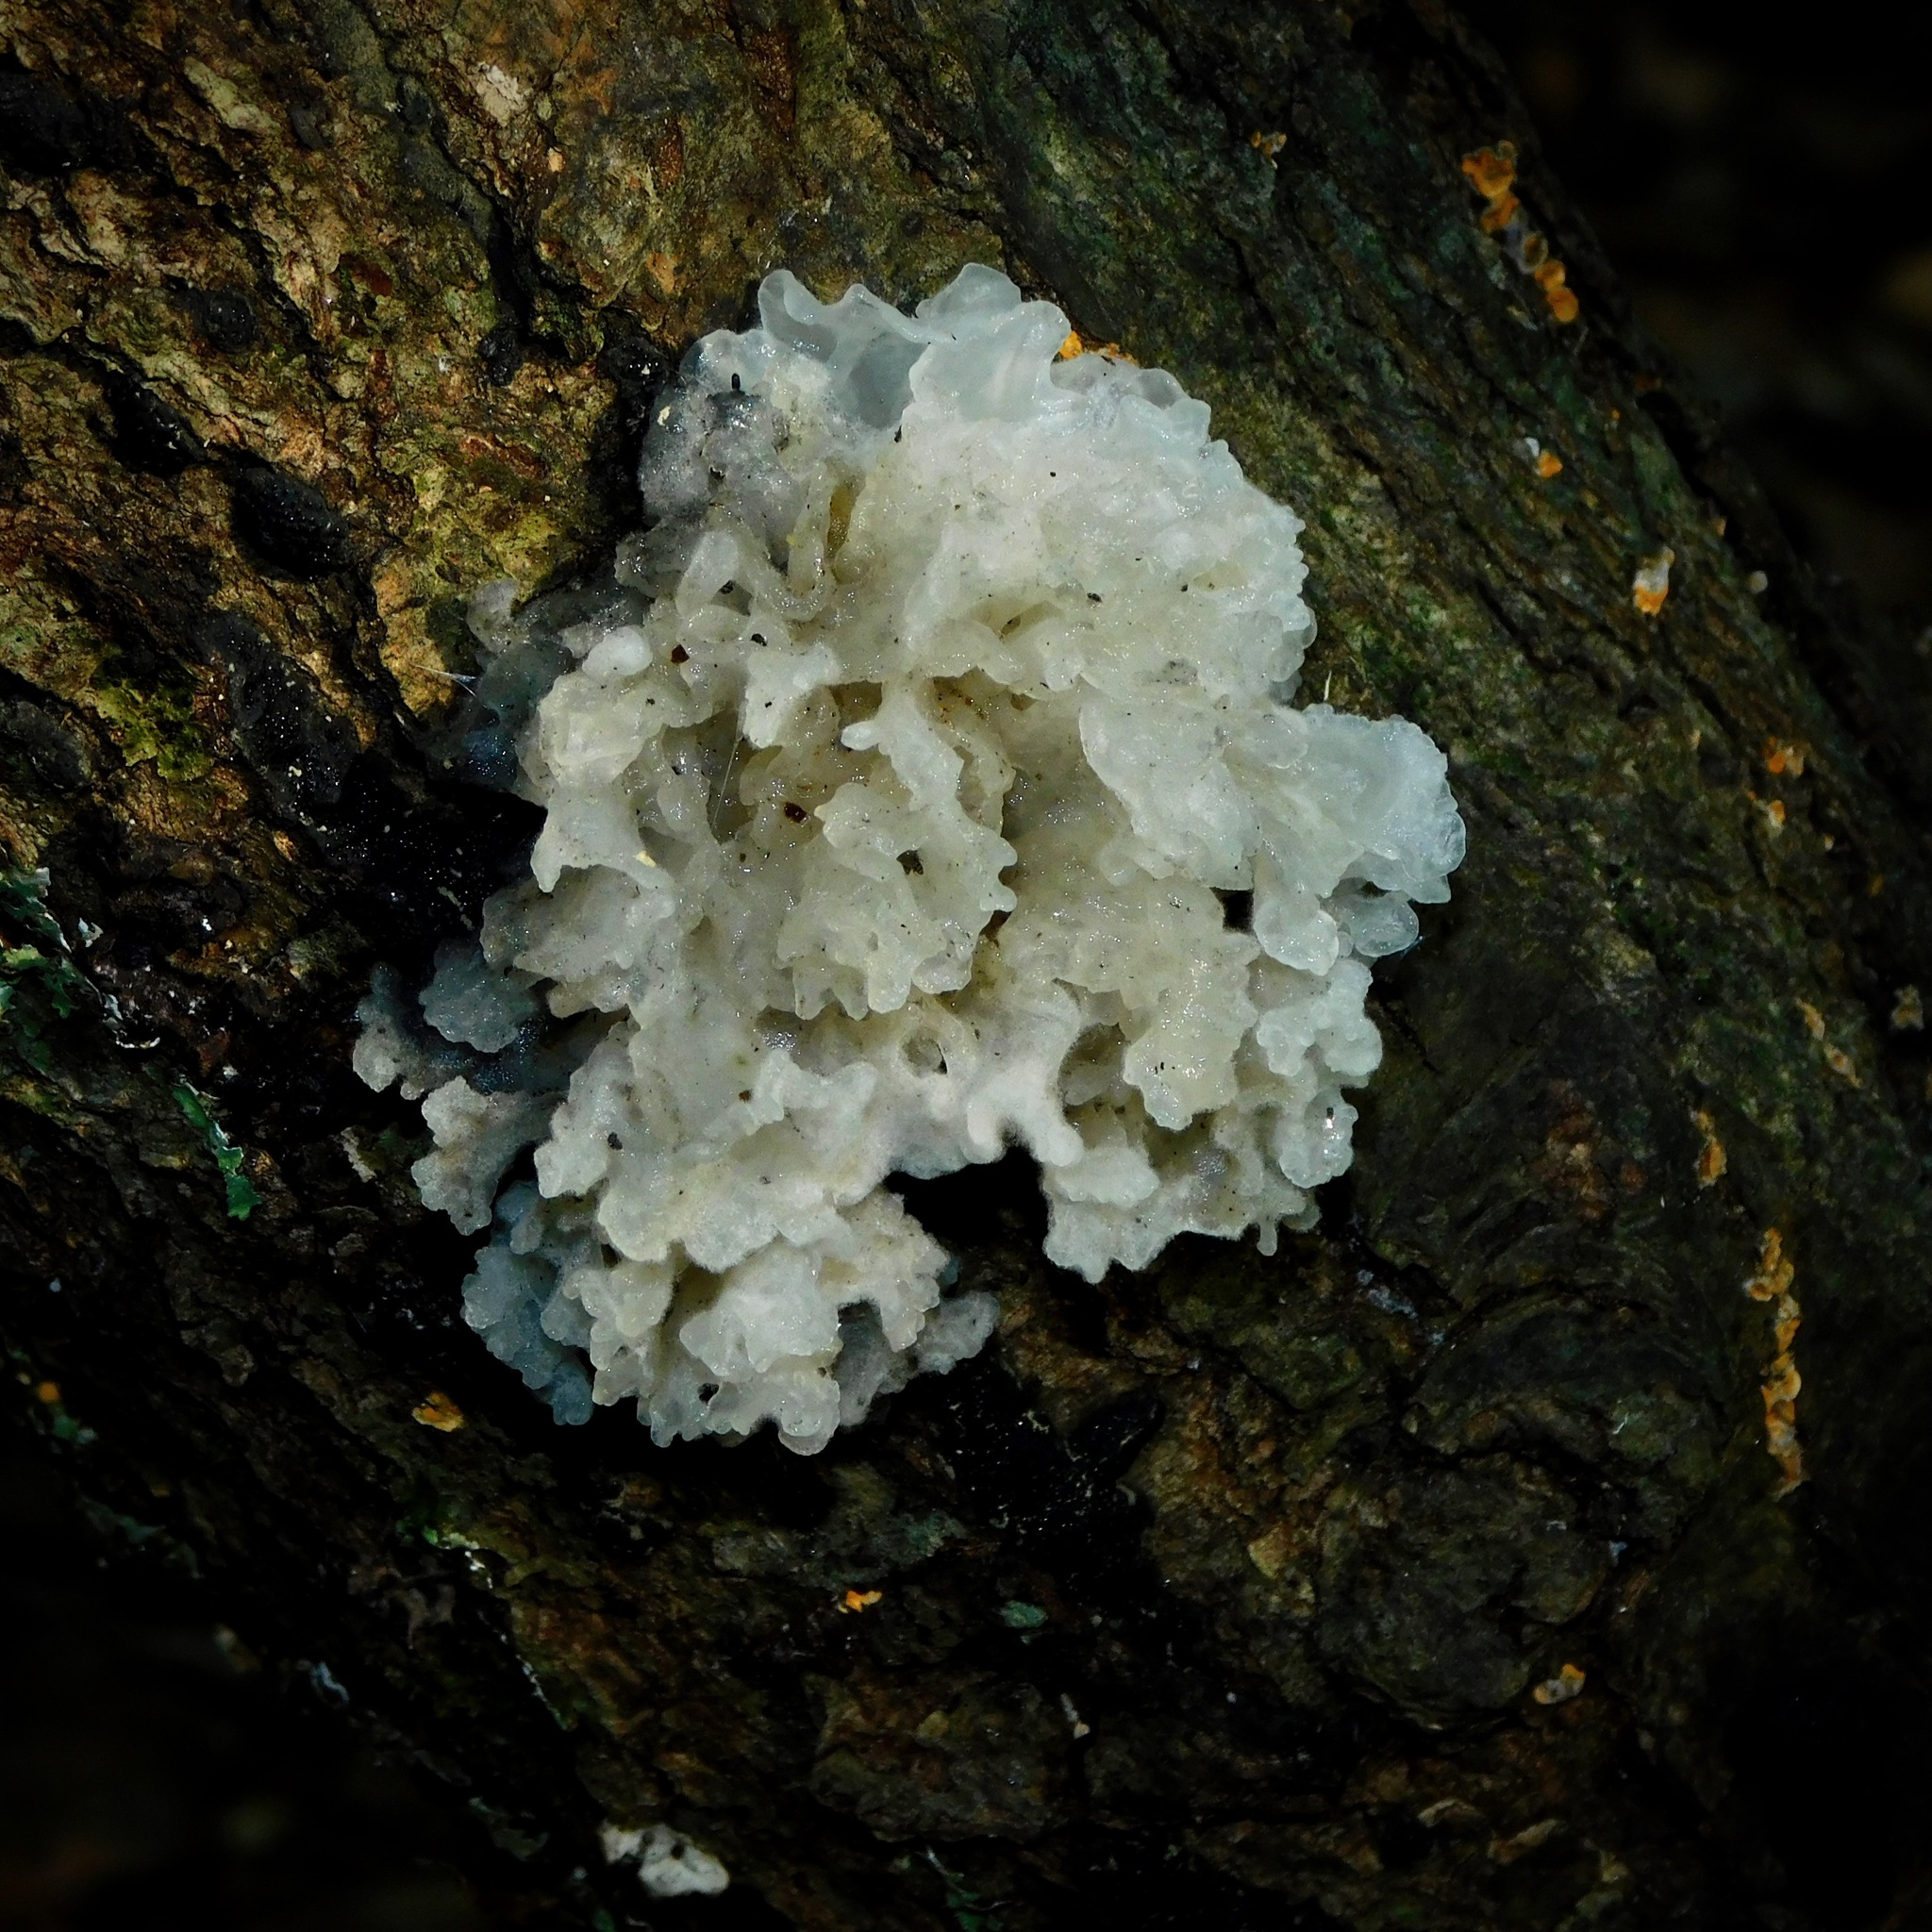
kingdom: Fungi
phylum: Basidiomycota
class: Tremellomycetes
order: Tremellales
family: Tremellaceae
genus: Tremella
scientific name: Tremella fuciformis
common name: Snow fungus
